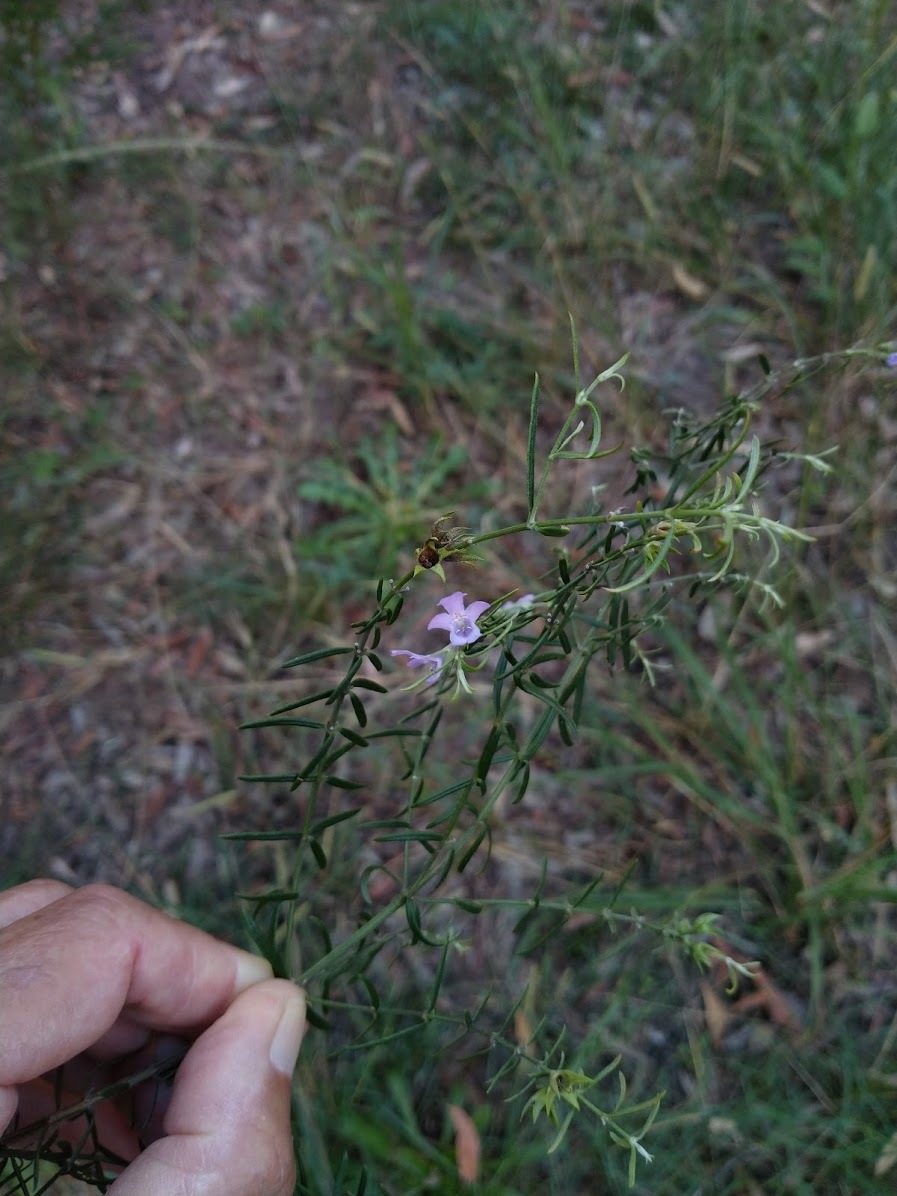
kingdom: Plantae
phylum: Tracheophyta
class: Magnoliopsida
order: Lamiales
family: Lamiaceae
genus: Westringia
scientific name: Westringia eremicola
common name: Slender western-rosemary
